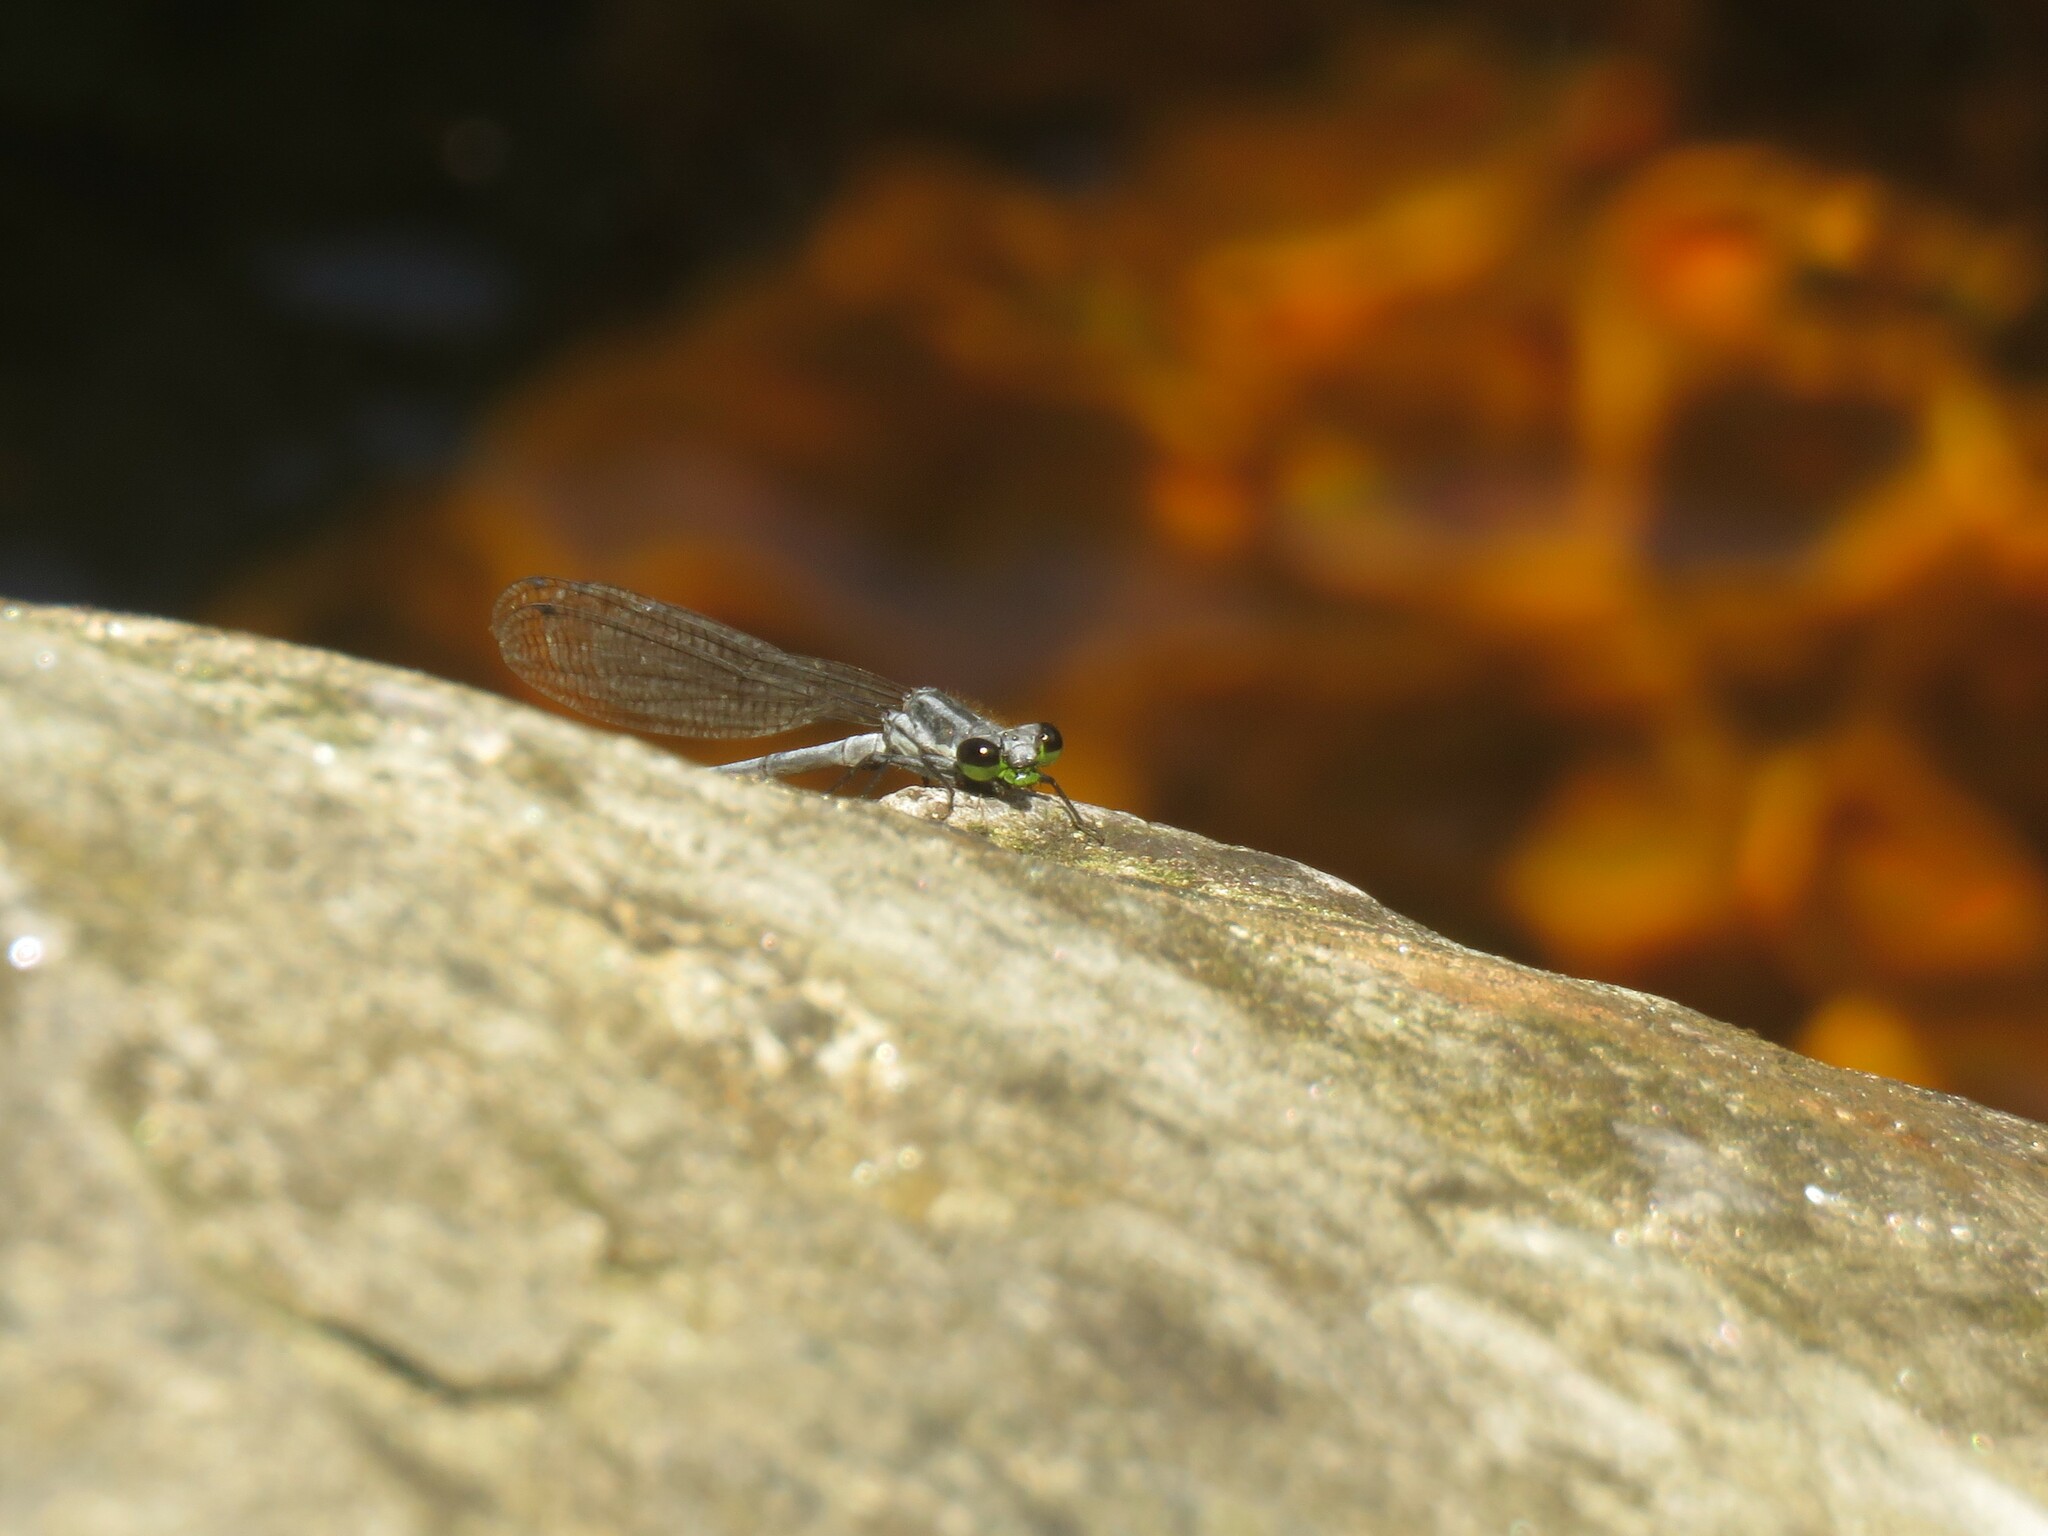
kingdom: Animalia
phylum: Arthropoda
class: Insecta
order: Odonata
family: Coenagrionidae
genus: Pseudagrion
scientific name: Pseudagrion furcigerum
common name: Palmiet sprite
